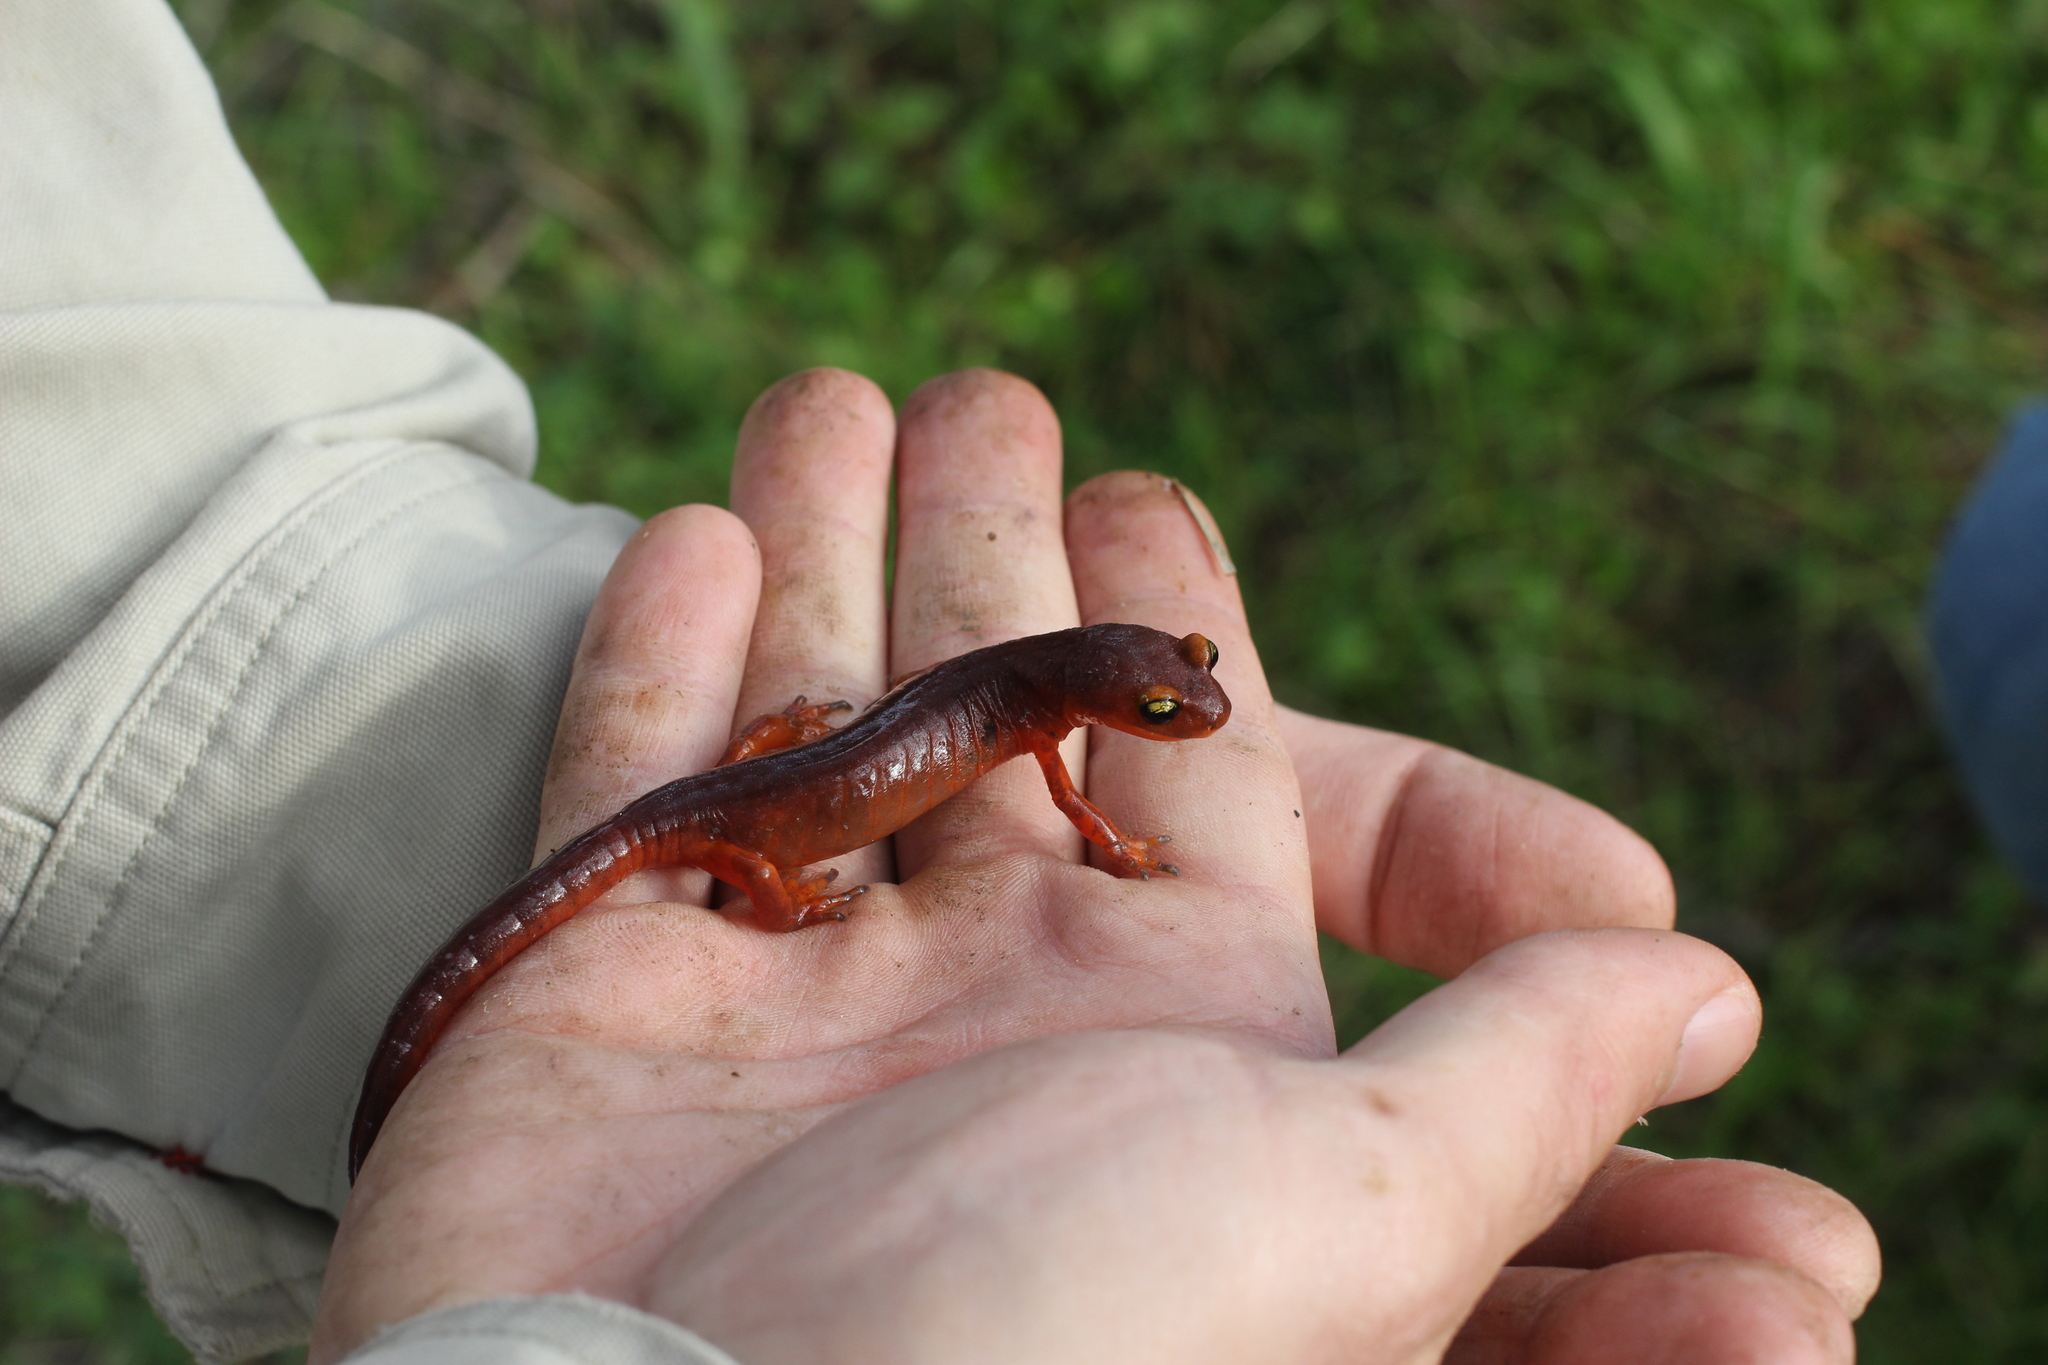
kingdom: Animalia
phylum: Chordata
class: Amphibia
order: Caudata
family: Plethodontidae
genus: Ensatina
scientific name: Ensatina eschscholtzii
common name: Ensatina
